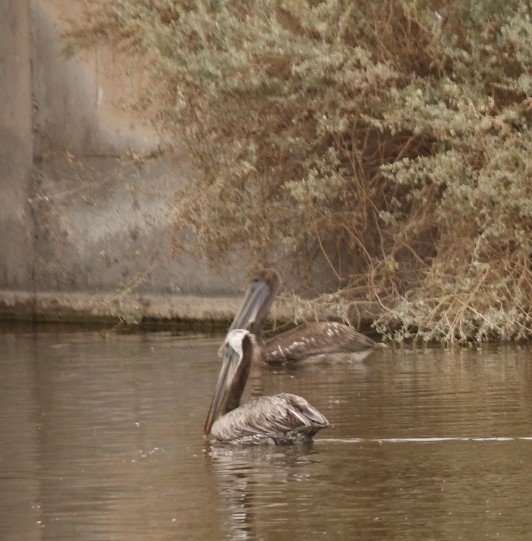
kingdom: Animalia
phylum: Chordata
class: Aves
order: Pelecaniformes
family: Pelecanidae
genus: Pelecanus
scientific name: Pelecanus occidentalis
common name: Brown pelican
